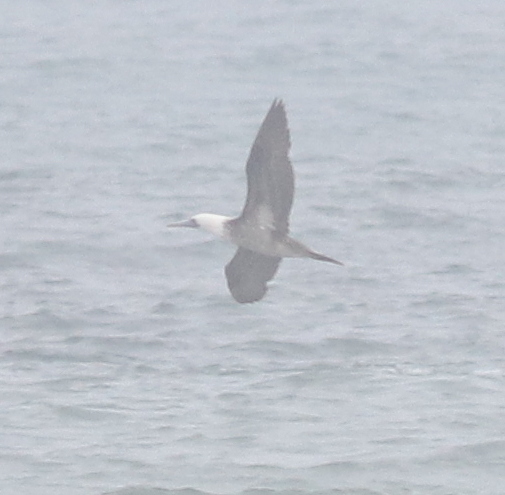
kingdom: Animalia
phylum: Chordata
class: Aves
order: Suliformes
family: Sulidae
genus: Sula
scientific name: Sula variegata
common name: Peruvian booby
